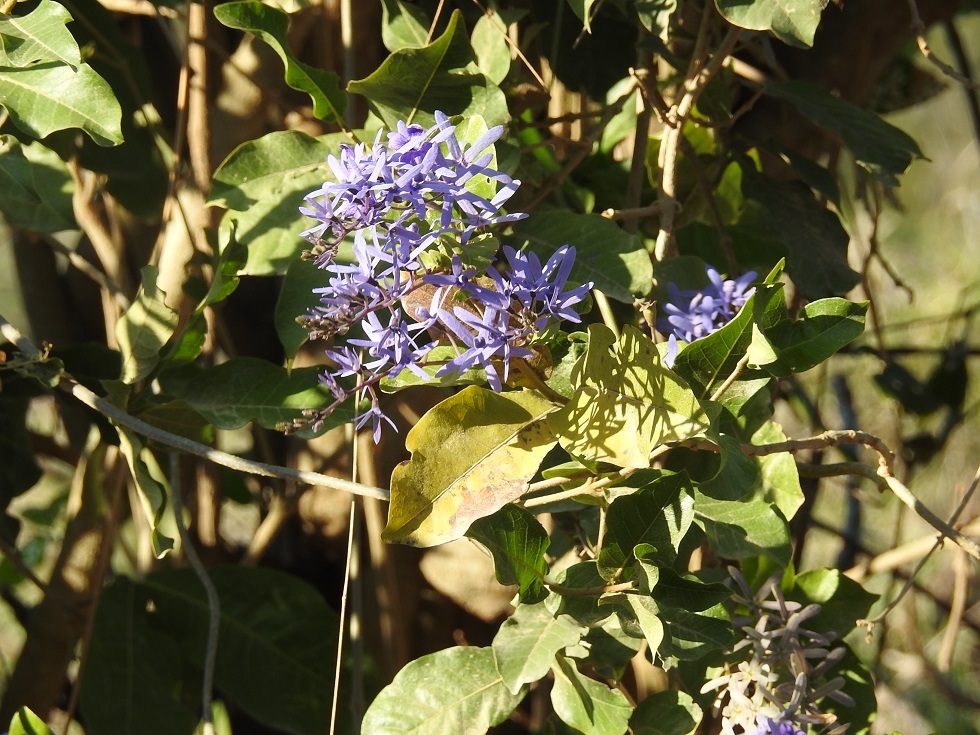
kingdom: Plantae
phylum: Tracheophyta
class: Magnoliopsida
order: Lamiales
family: Verbenaceae
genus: Petrea
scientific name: Petrea volubilis
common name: Queen's-wreath
